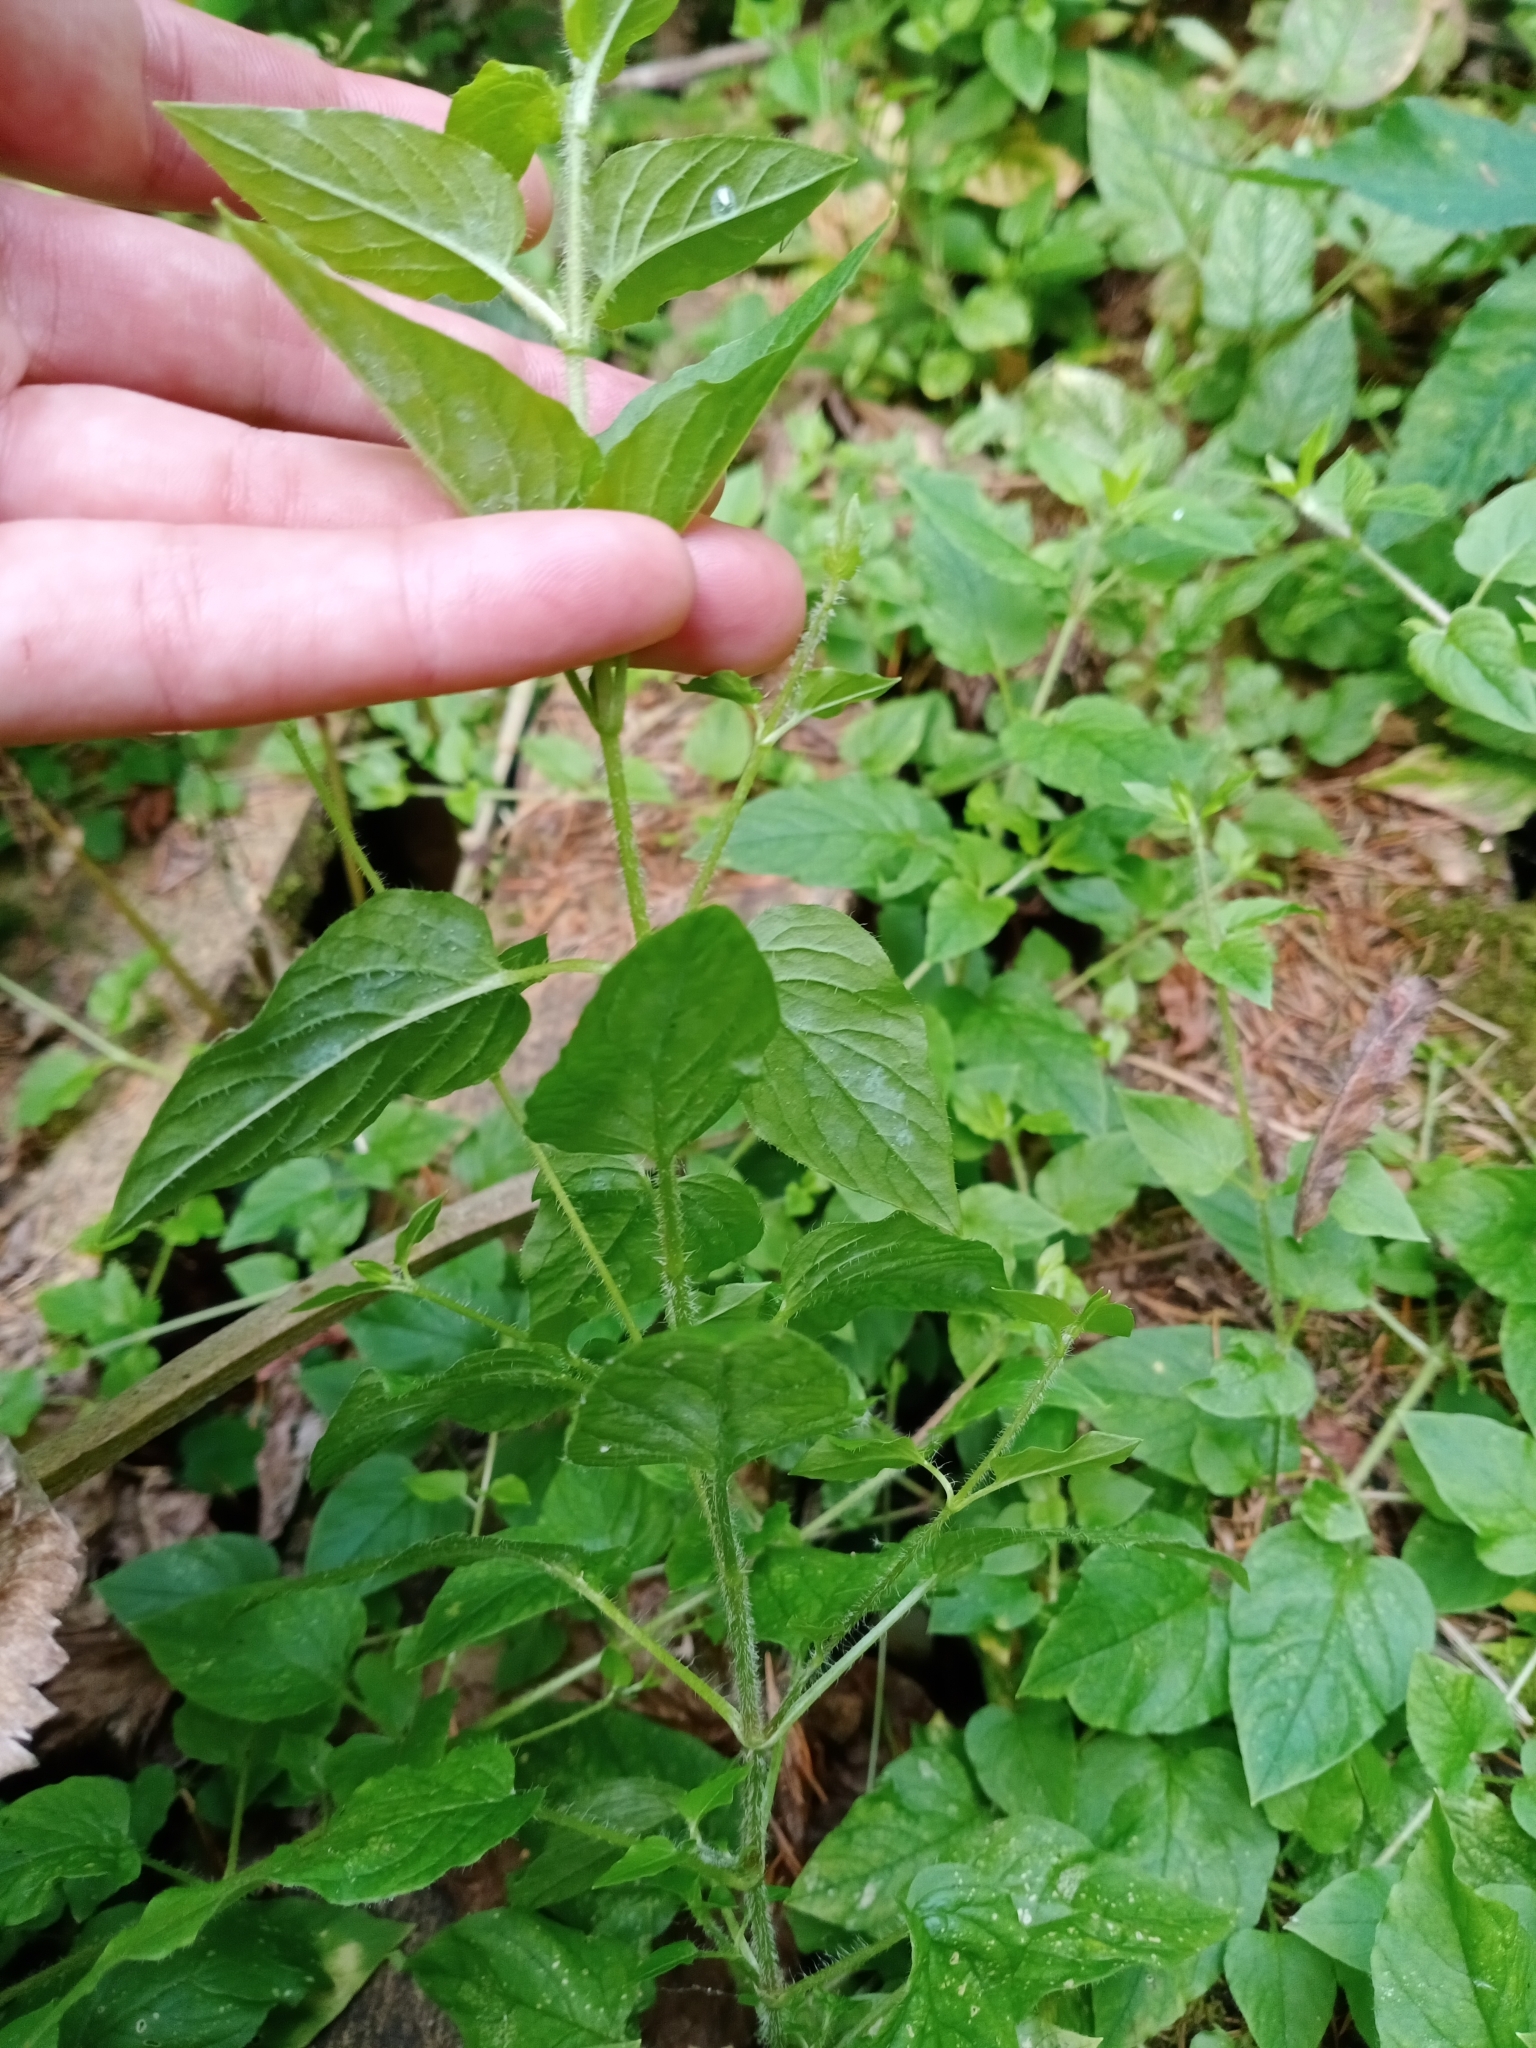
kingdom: Plantae
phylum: Tracheophyta
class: Magnoliopsida
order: Caryophyllales
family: Caryophyllaceae
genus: Stellaria
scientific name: Stellaria nemorum
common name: Wood stitchwort
